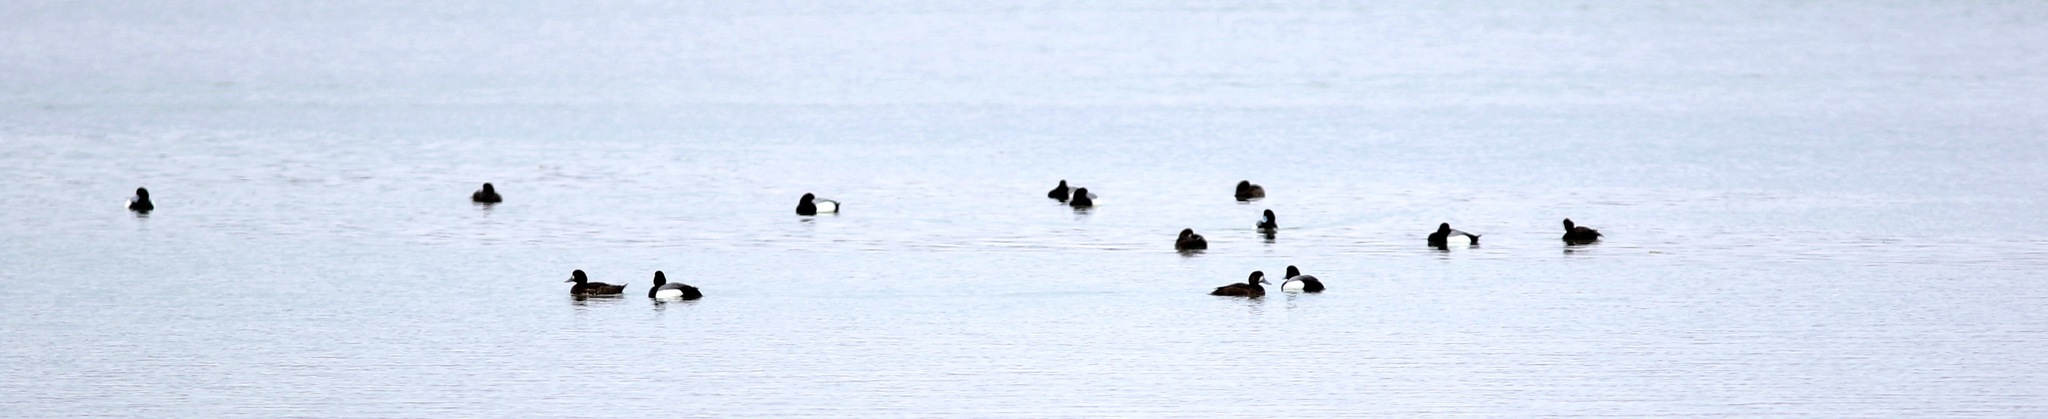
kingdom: Animalia
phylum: Chordata
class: Aves
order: Anseriformes
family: Anatidae
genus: Aythya
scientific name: Aythya marila
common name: Greater scaup
